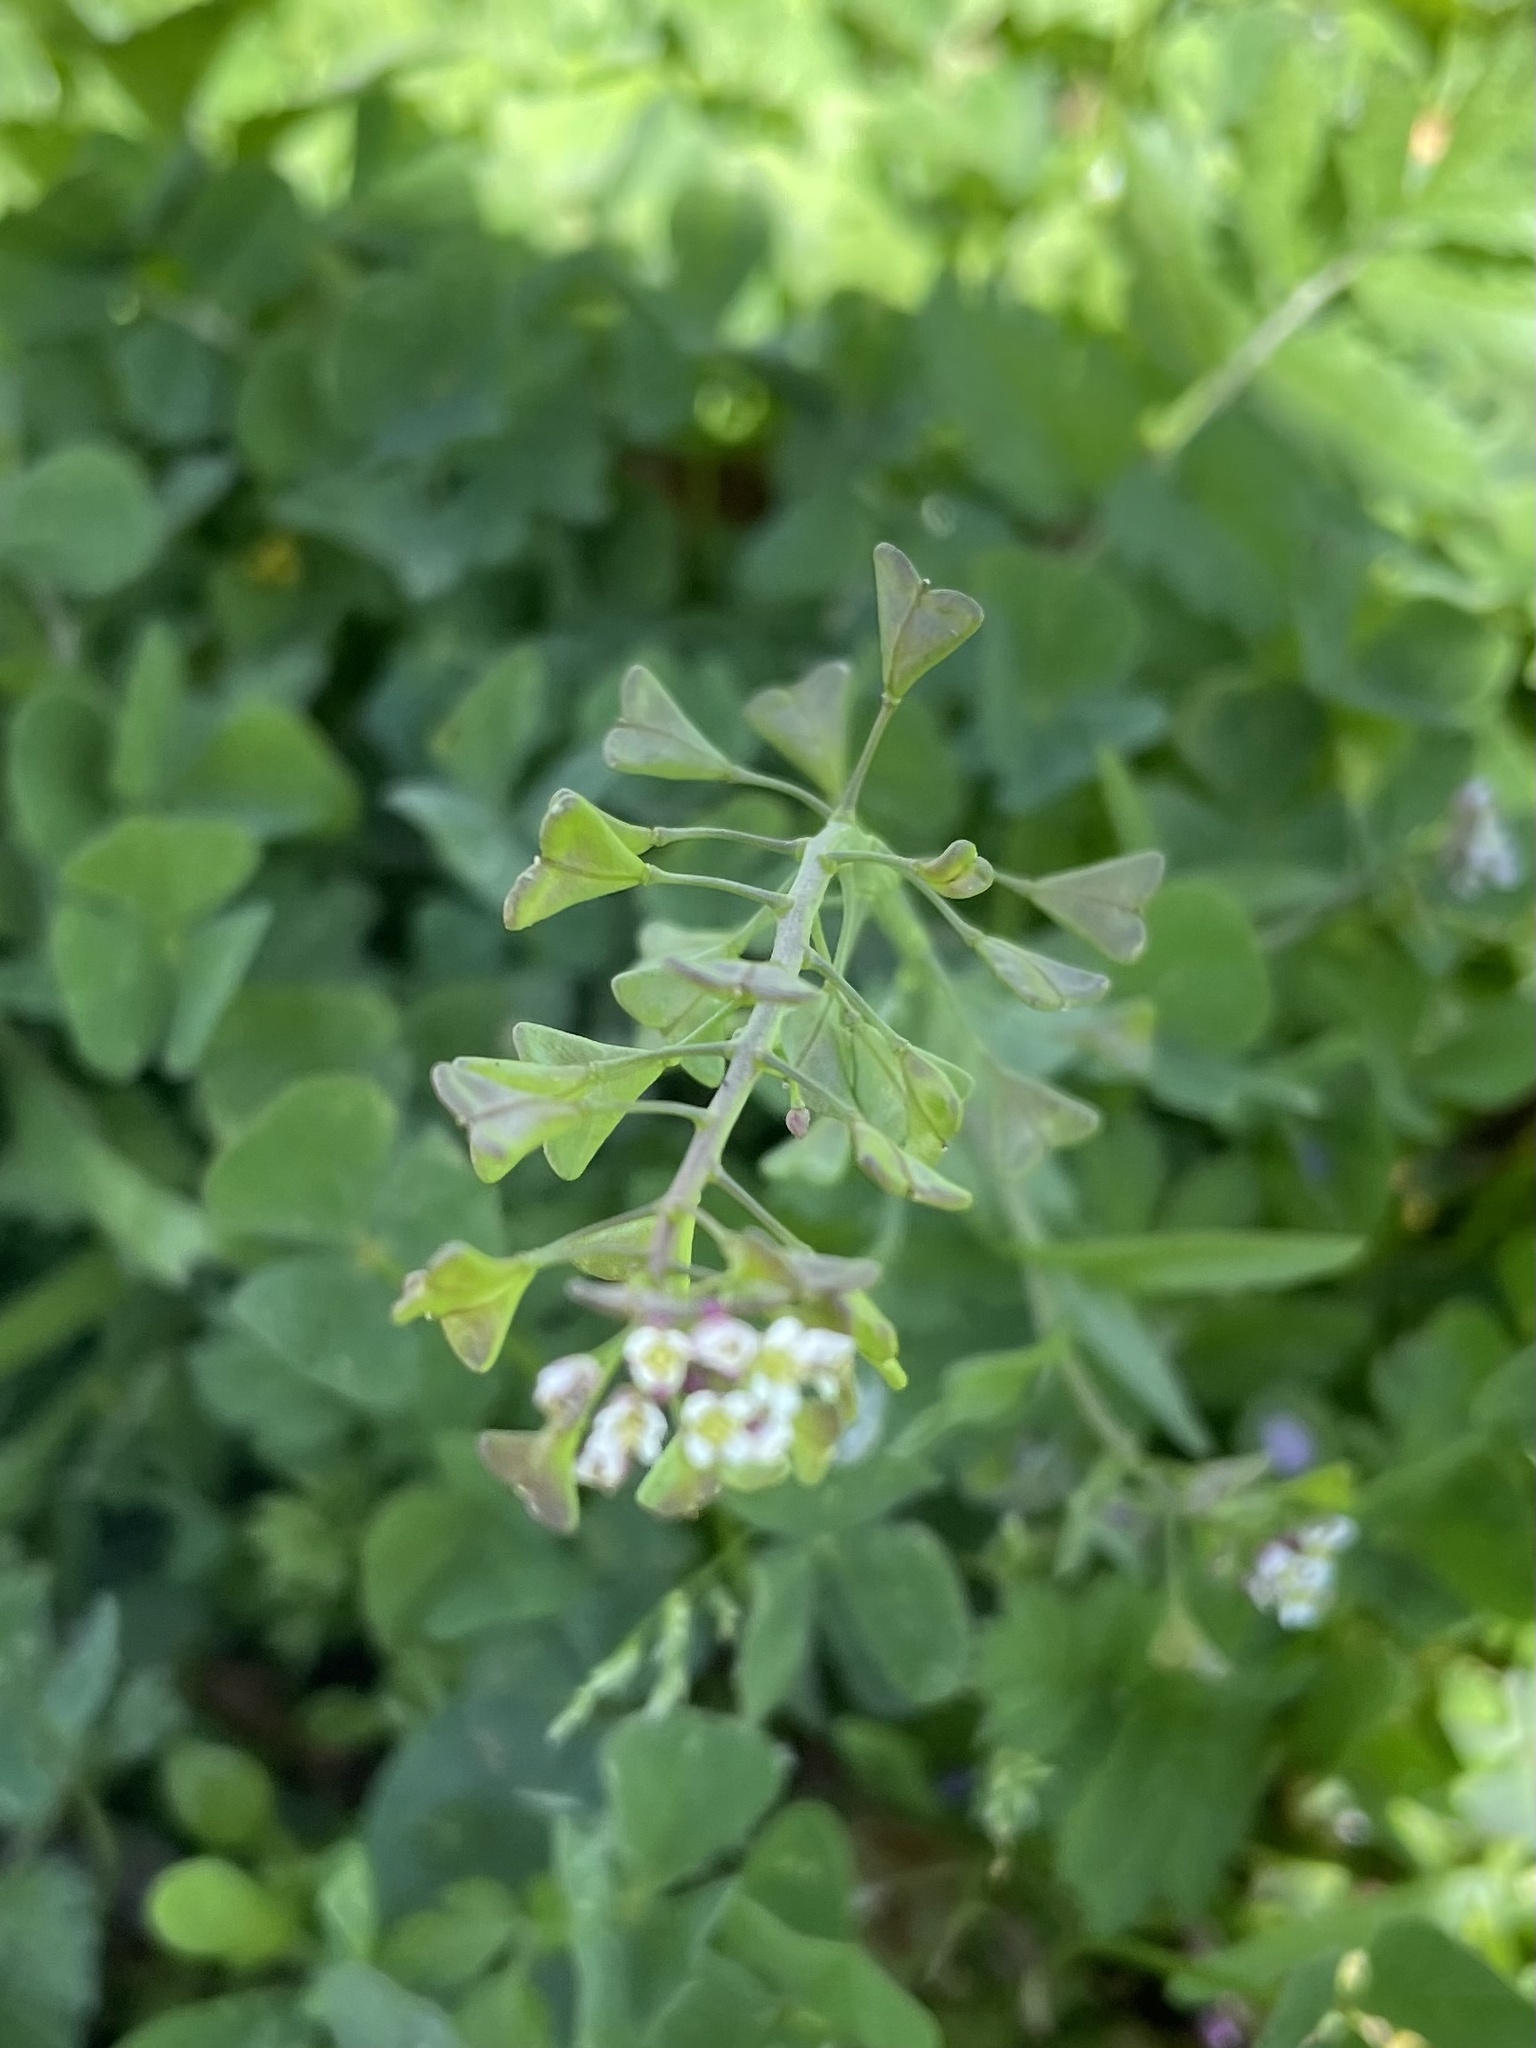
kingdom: Plantae
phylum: Tracheophyta
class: Magnoliopsida
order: Brassicales
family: Brassicaceae
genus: Capsella
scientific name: Capsella bursa-pastoris
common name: Shepherd's purse
